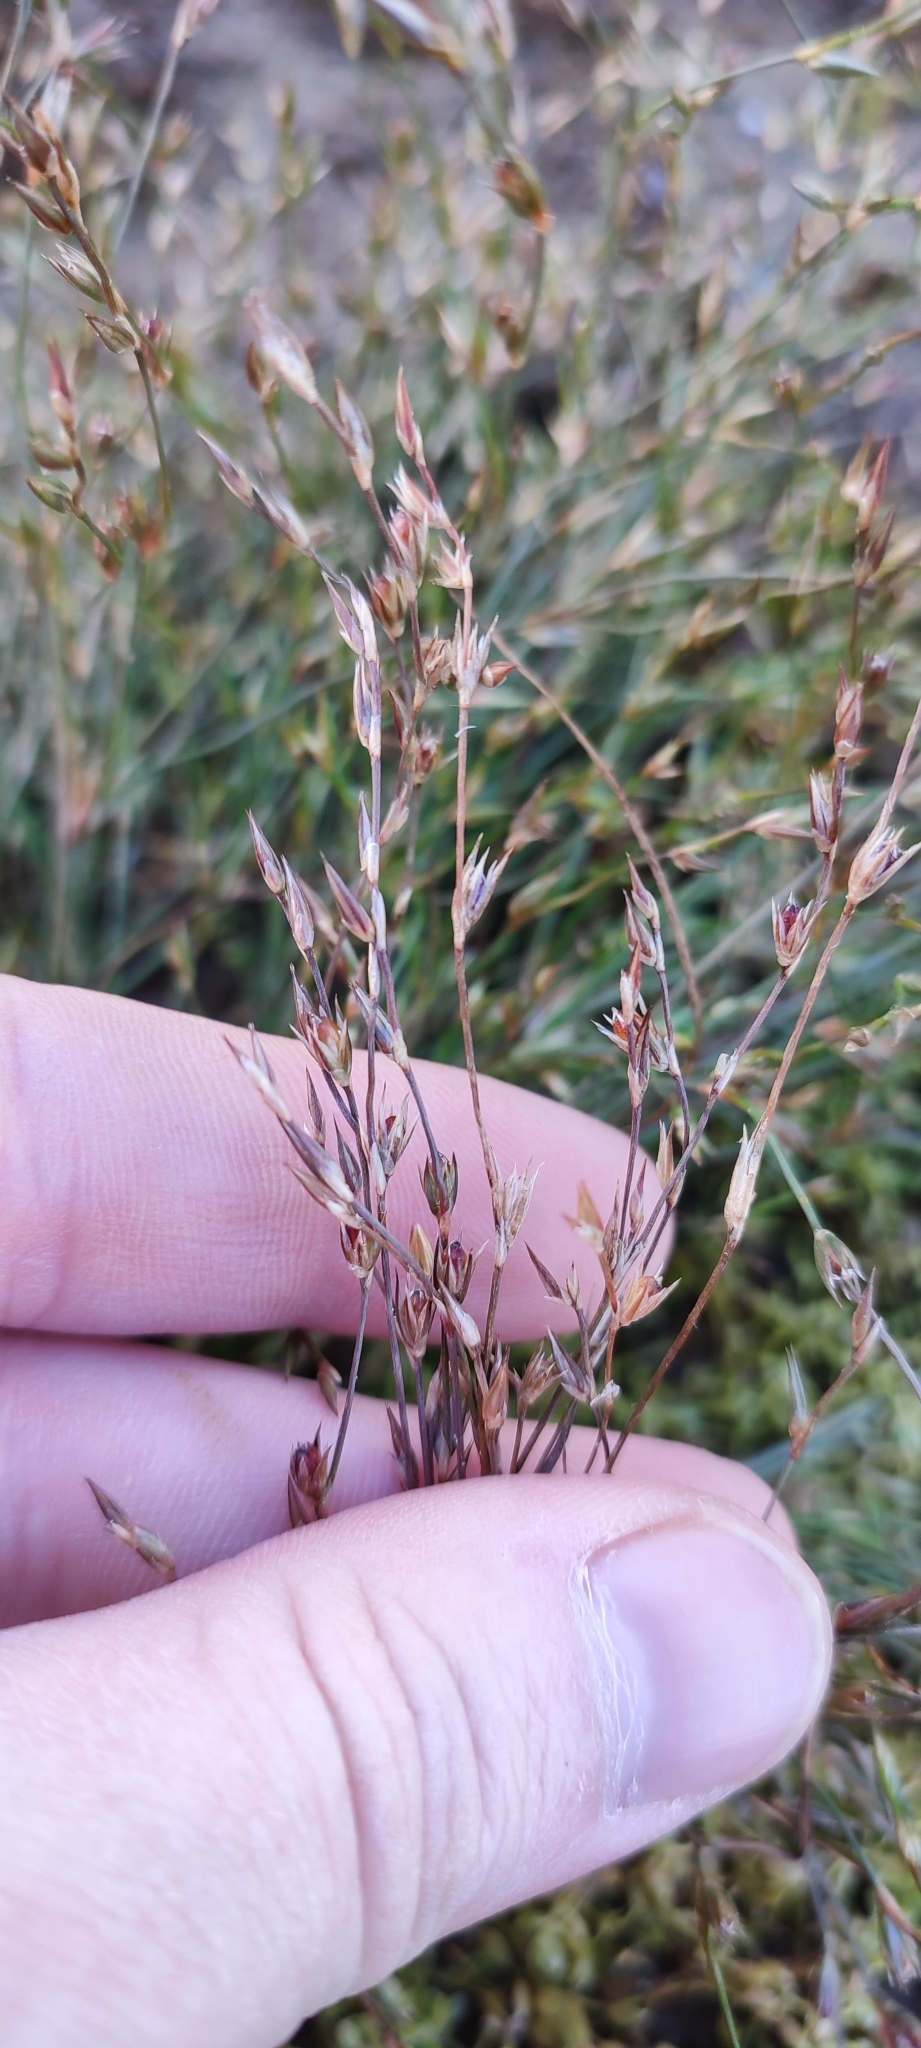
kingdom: Plantae
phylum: Tracheophyta
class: Liliopsida
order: Poales
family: Juncaceae
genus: Juncus
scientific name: Juncus bufonius
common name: Toad rush
